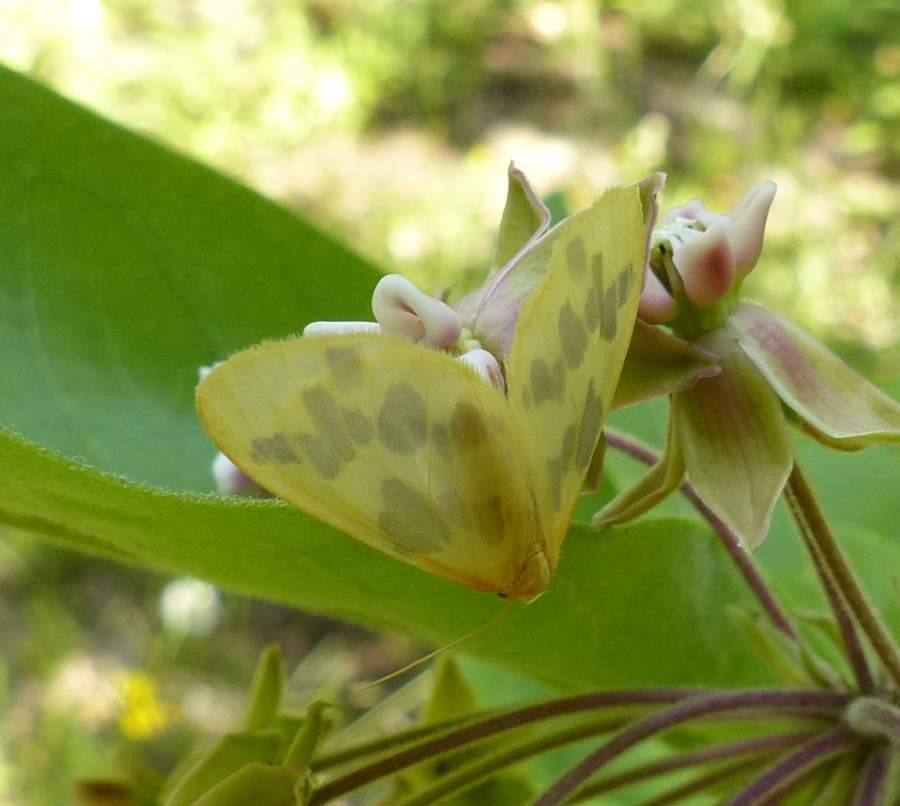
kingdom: Animalia
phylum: Arthropoda
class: Insecta
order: Lepidoptera
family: Geometridae
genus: Eubaphe
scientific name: Eubaphe mendica
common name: Beggar
